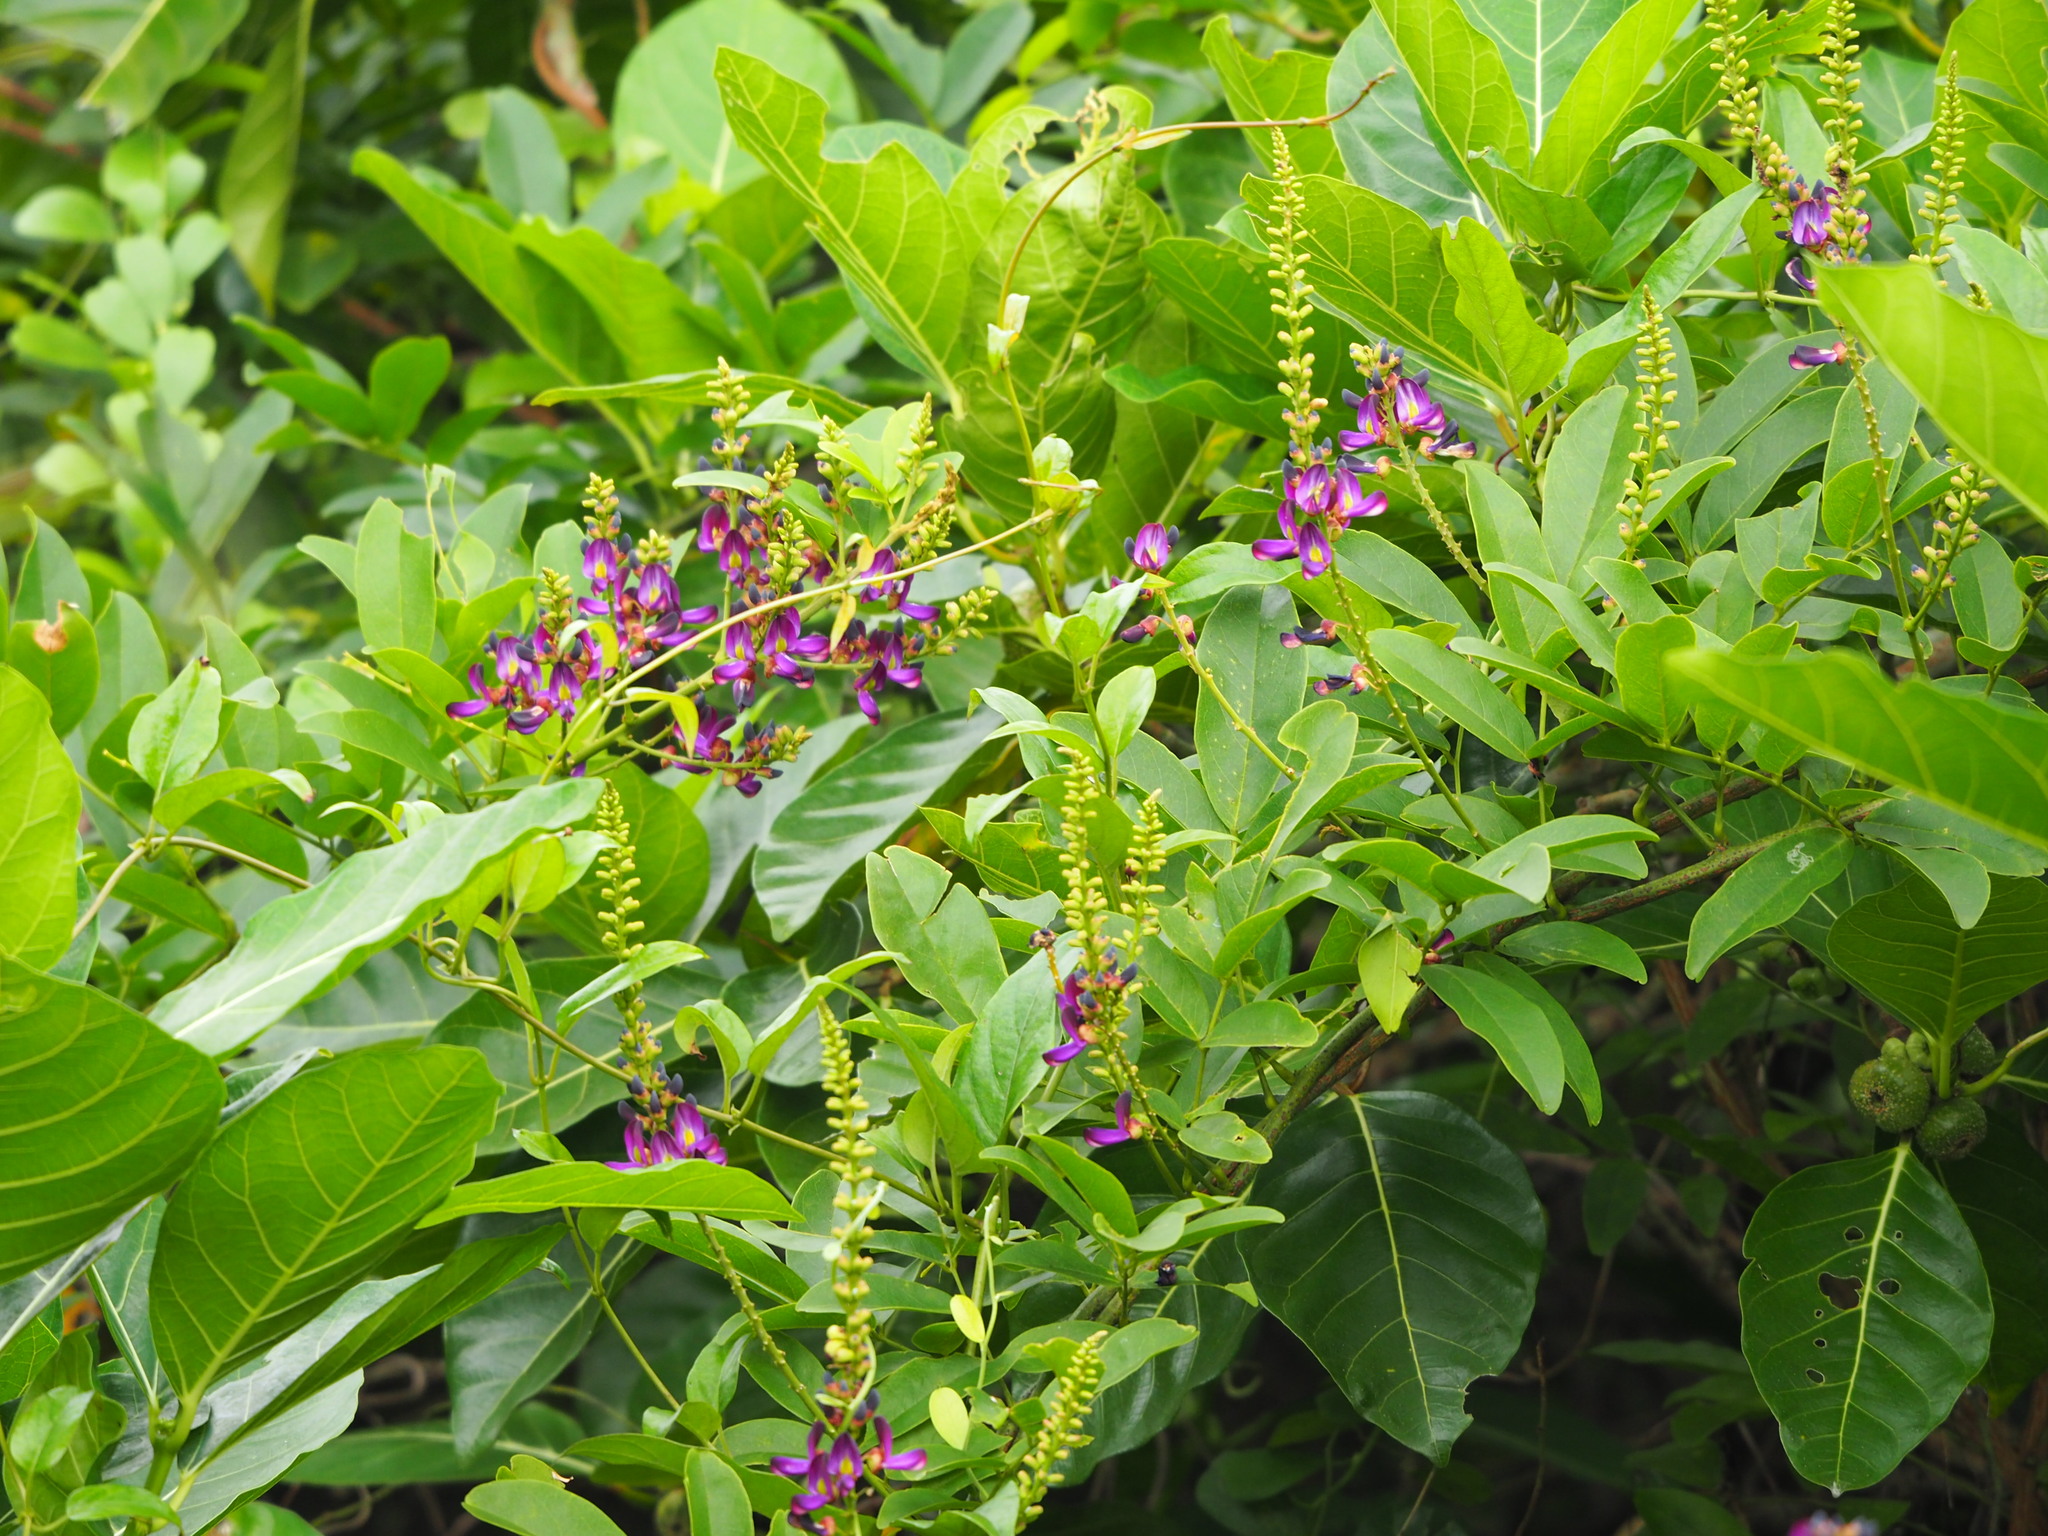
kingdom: Plantae
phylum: Tracheophyta
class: Magnoliopsida
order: Fabales
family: Fabaceae
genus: Wisteriopsis
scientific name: Wisteriopsis reticulata
